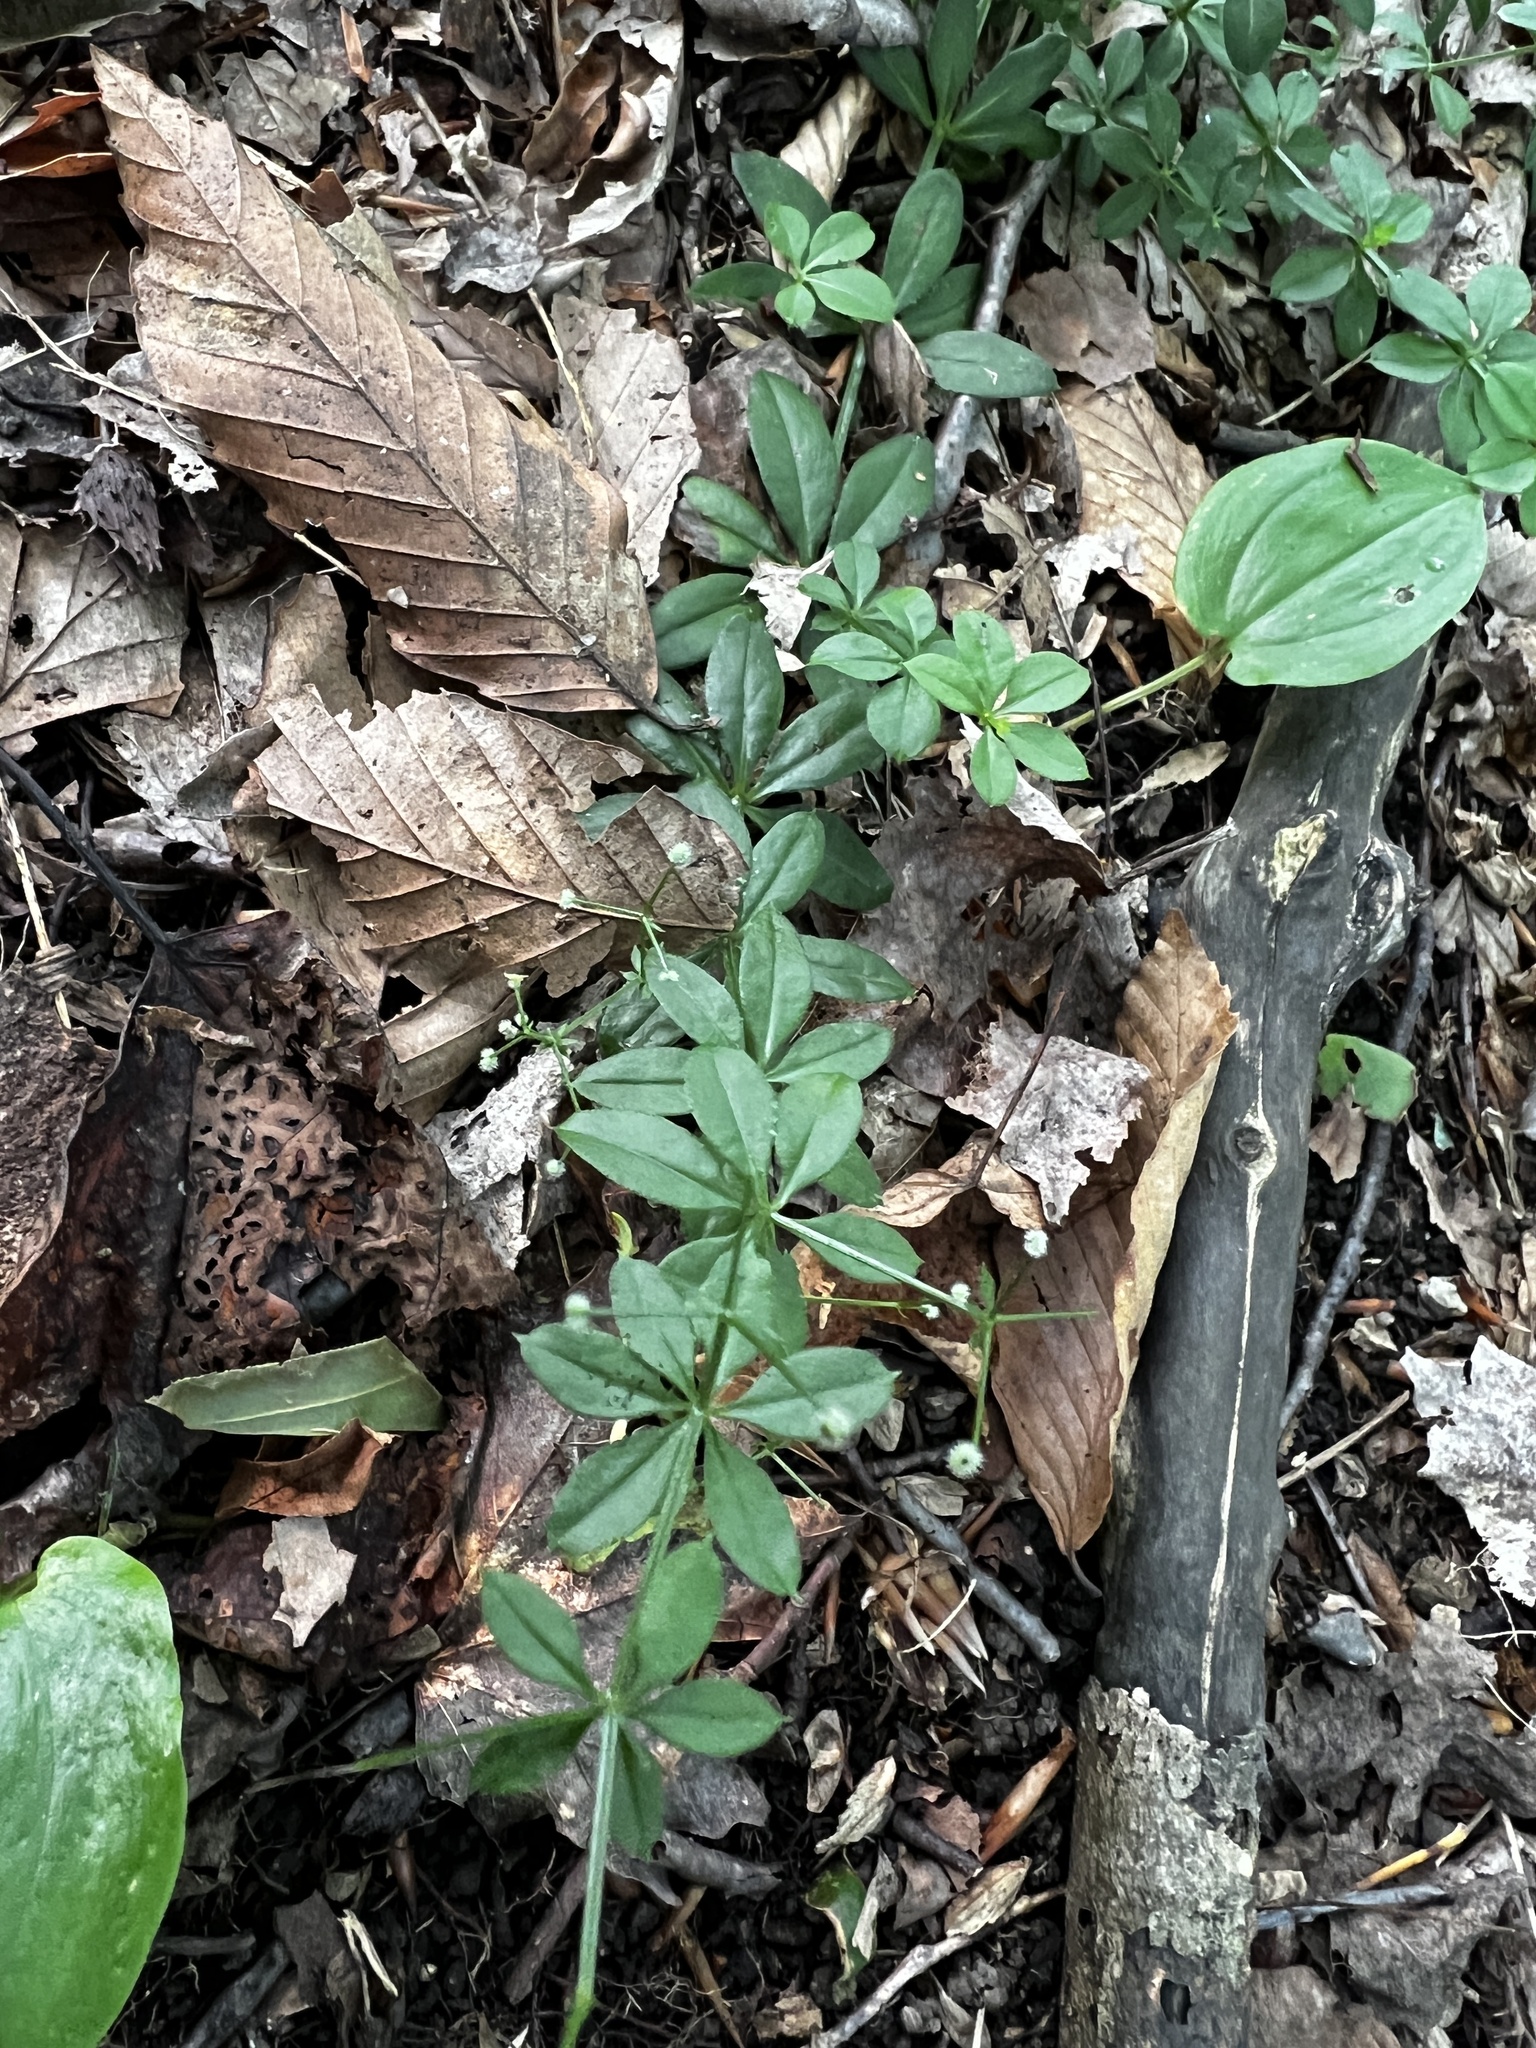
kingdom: Plantae
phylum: Tracheophyta
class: Magnoliopsida
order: Gentianales
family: Rubiaceae
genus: Galium
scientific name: Galium triflorum
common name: Fragrant bedstraw
